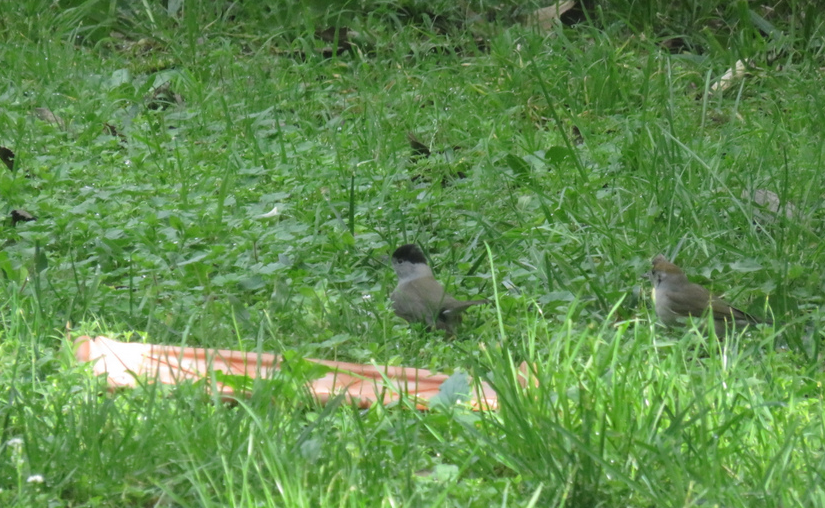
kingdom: Animalia
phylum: Chordata
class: Aves
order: Passeriformes
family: Sylviidae
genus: Sylvia
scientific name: Sylvia atricapilla
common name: Eurasian blackcap
